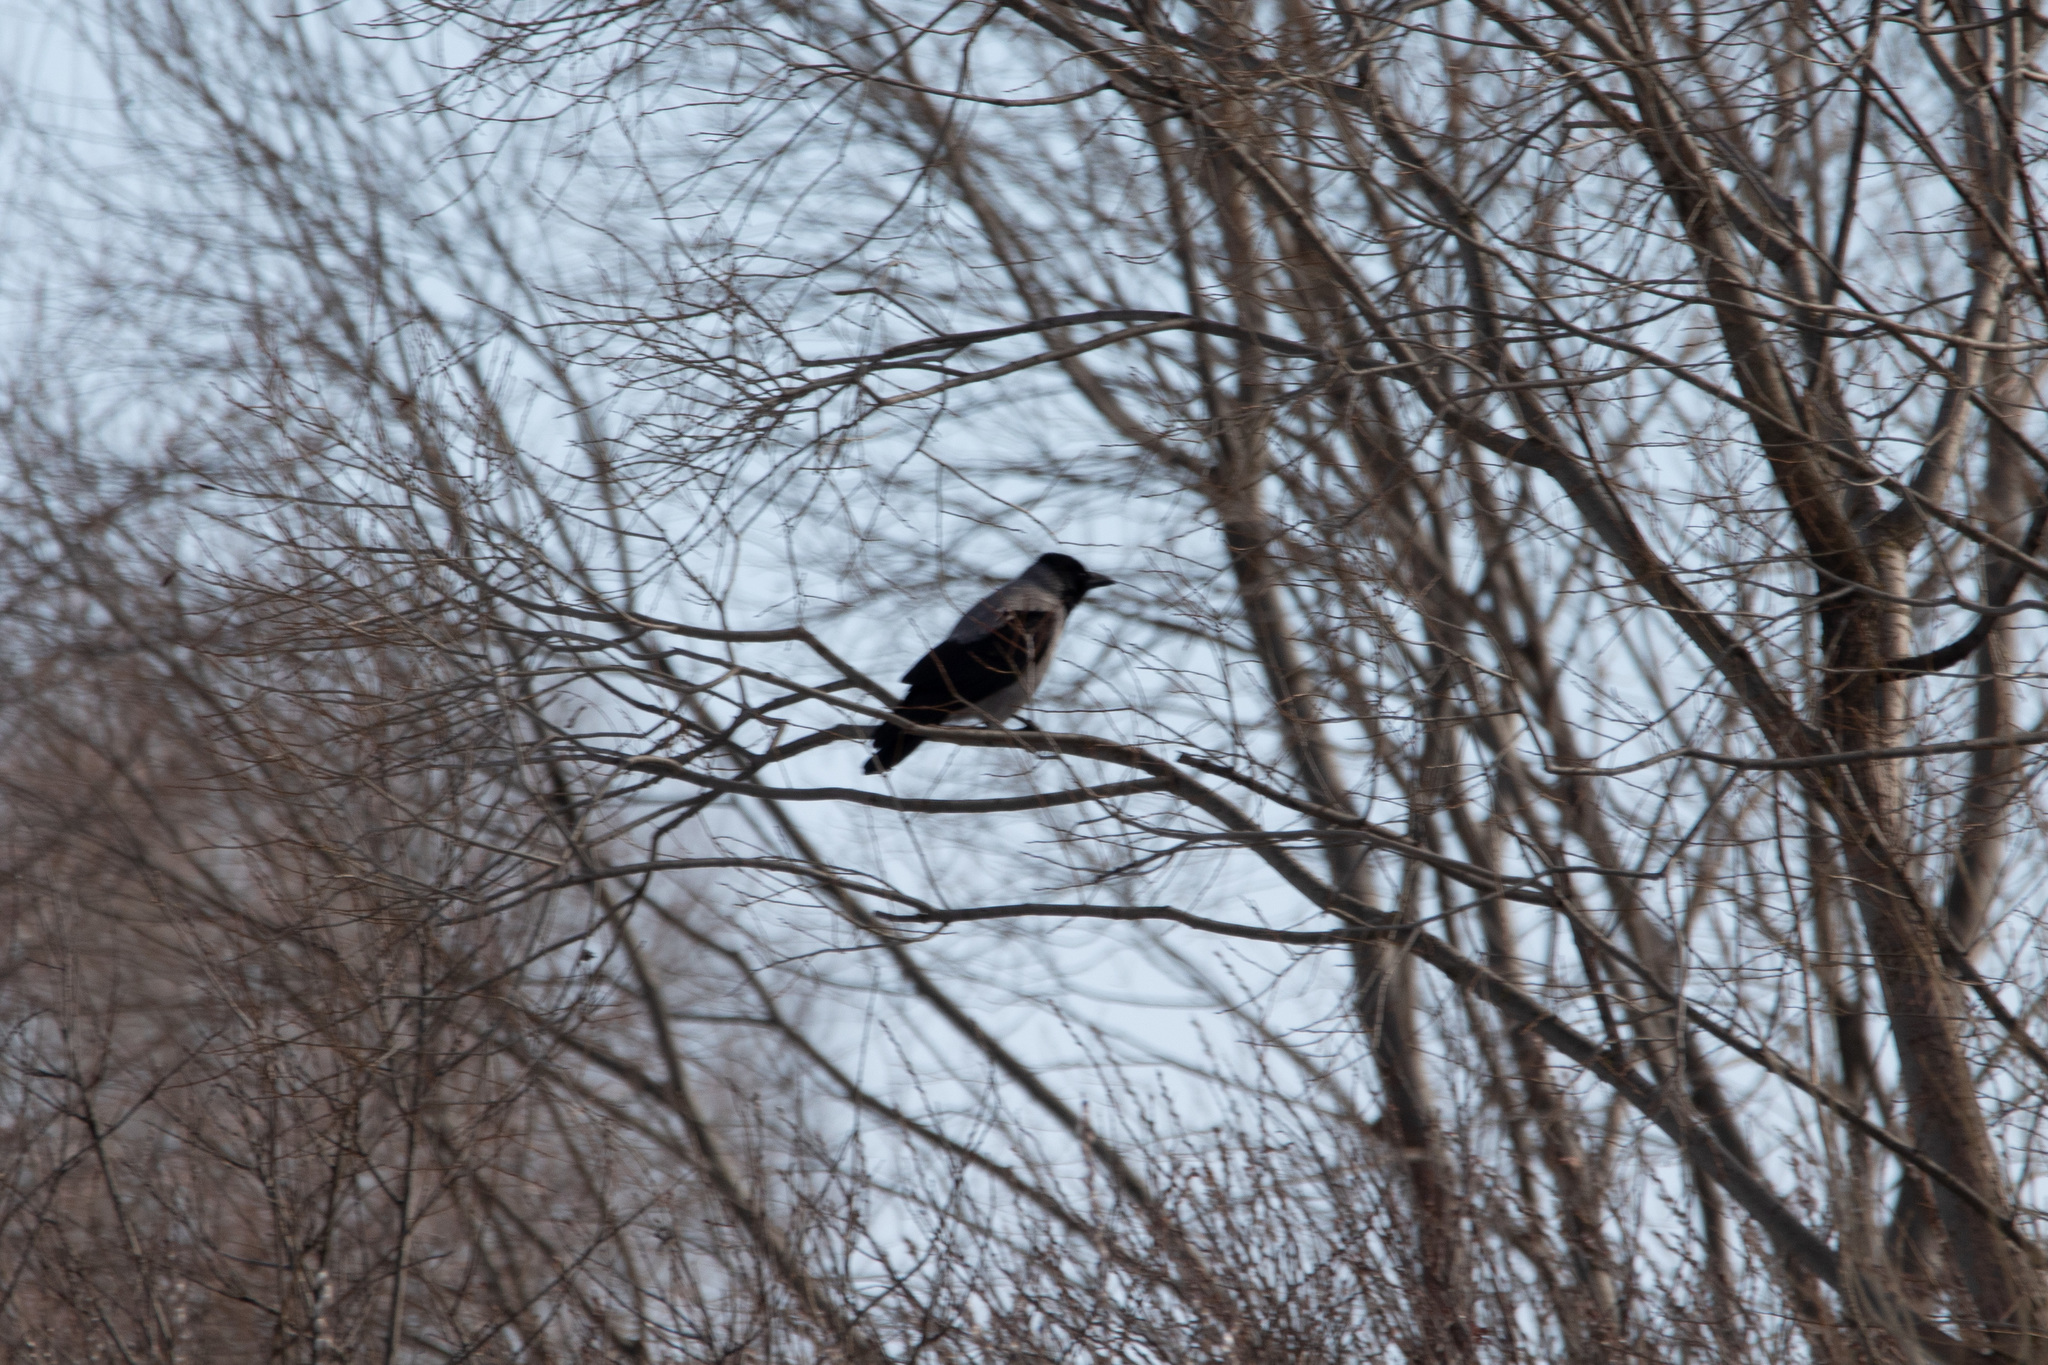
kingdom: Animalia
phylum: Chordata
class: Aves
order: Passeriformes
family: Corvidae
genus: Corvus
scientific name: Corvus cornix
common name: Hooded crow
